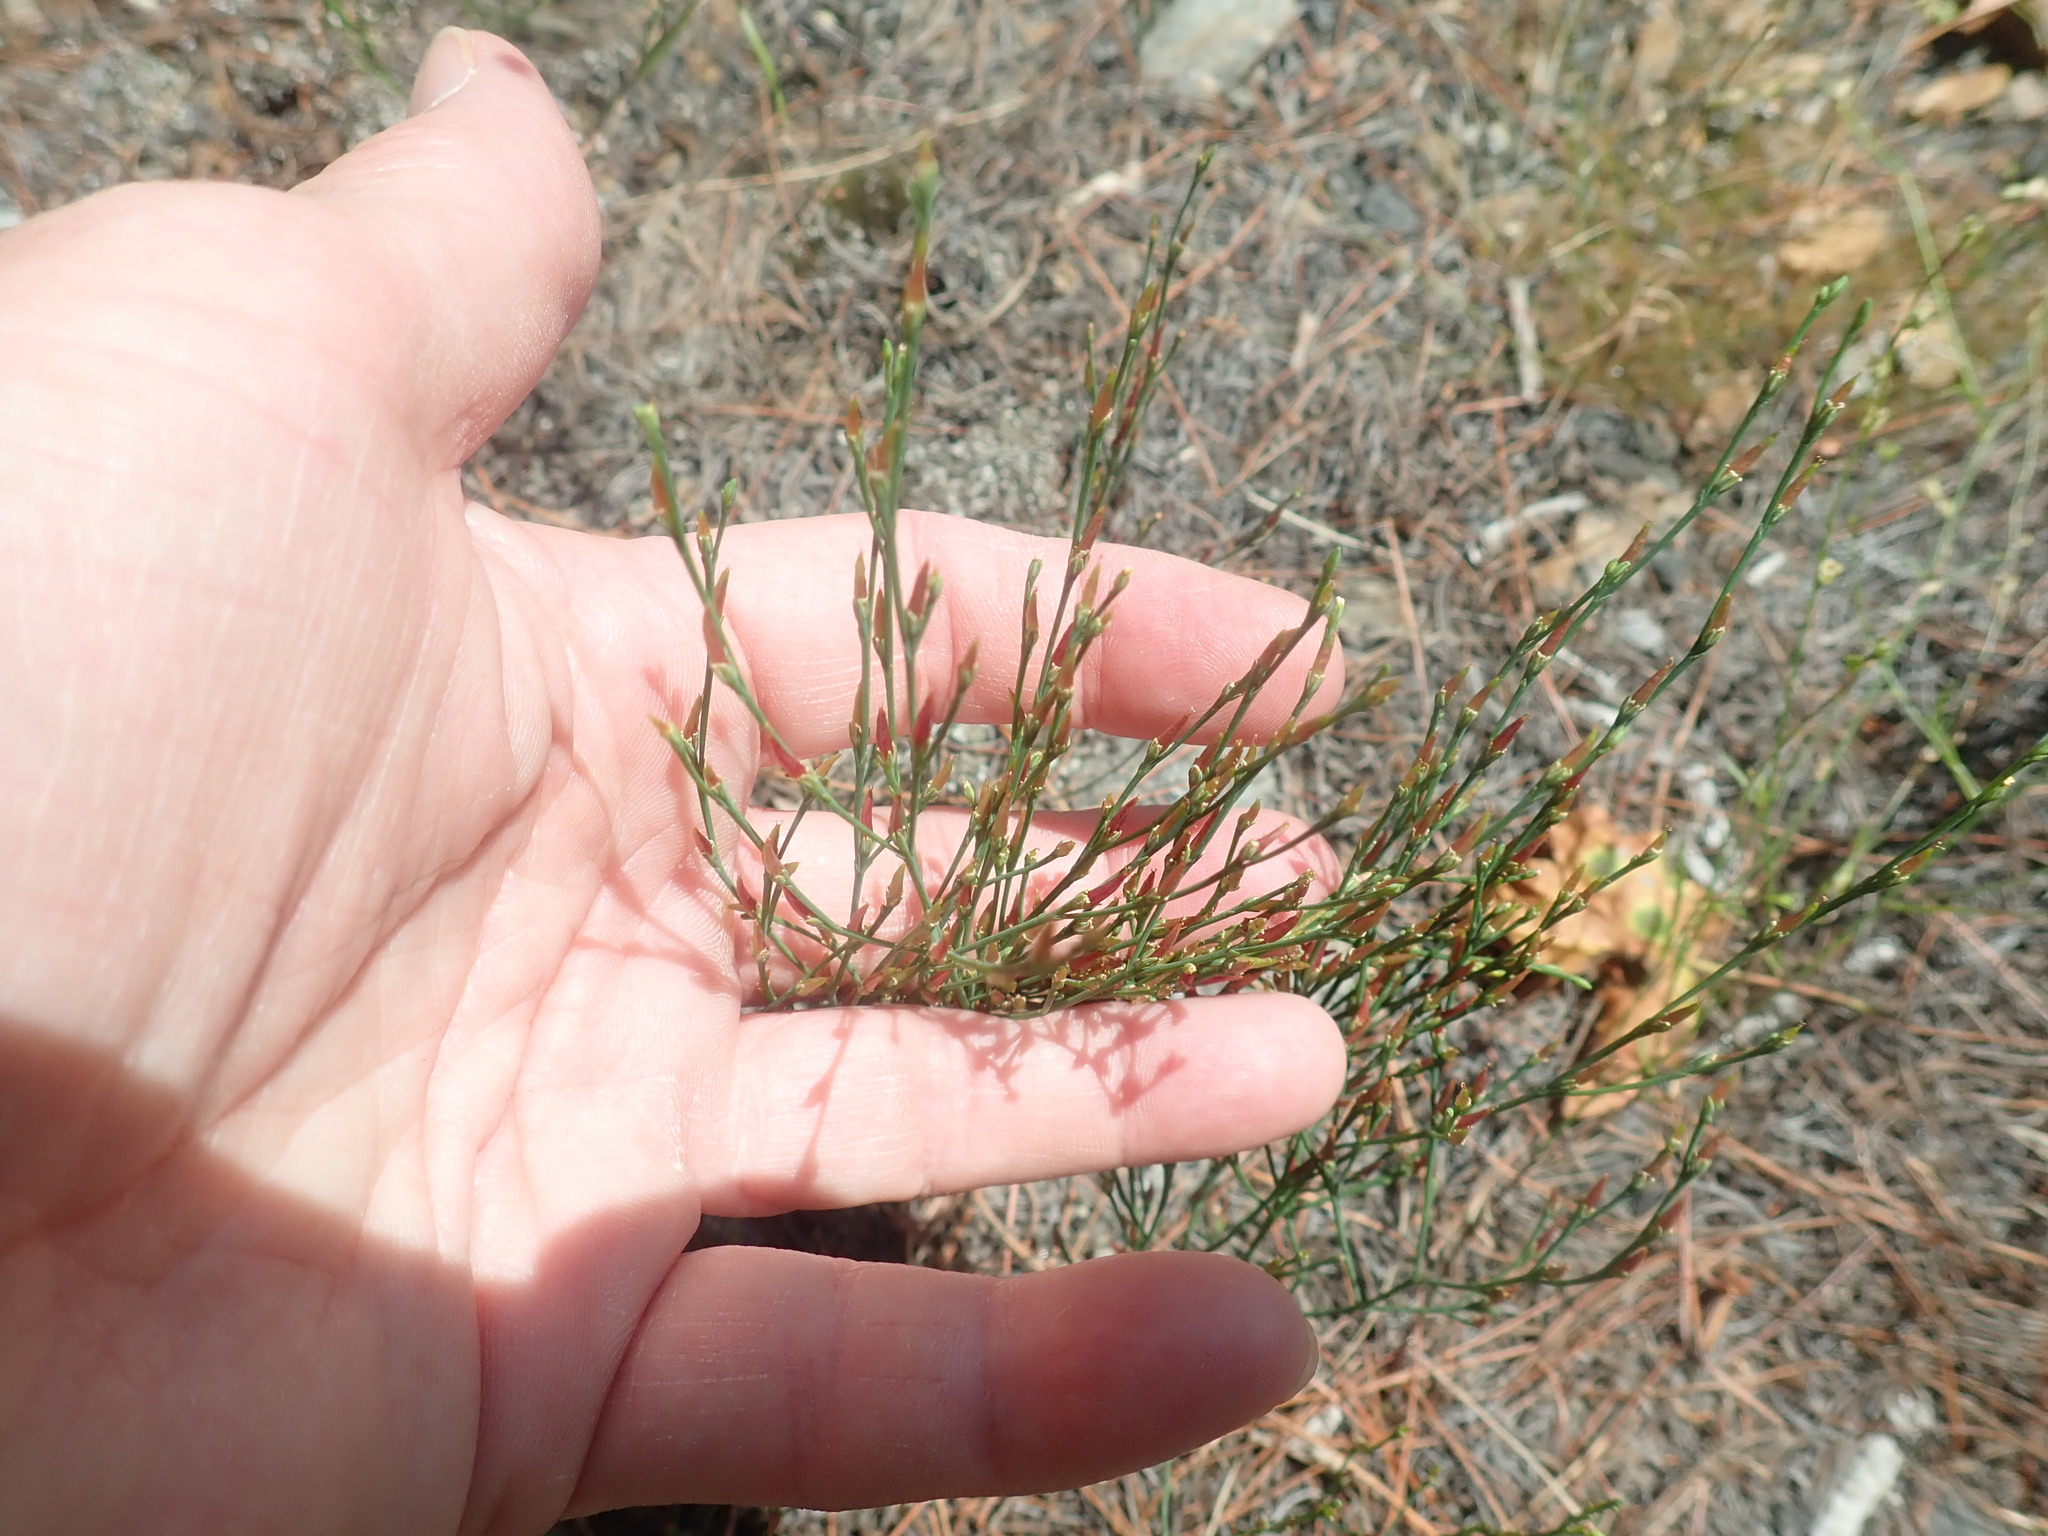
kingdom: Plantae
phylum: Tracheophyta
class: Magnoliopsida
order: Malpighiales
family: Hypericaceae
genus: Hypericum
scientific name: Hypericum gentianoides
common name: Gentian-leaved st. john's-wort
